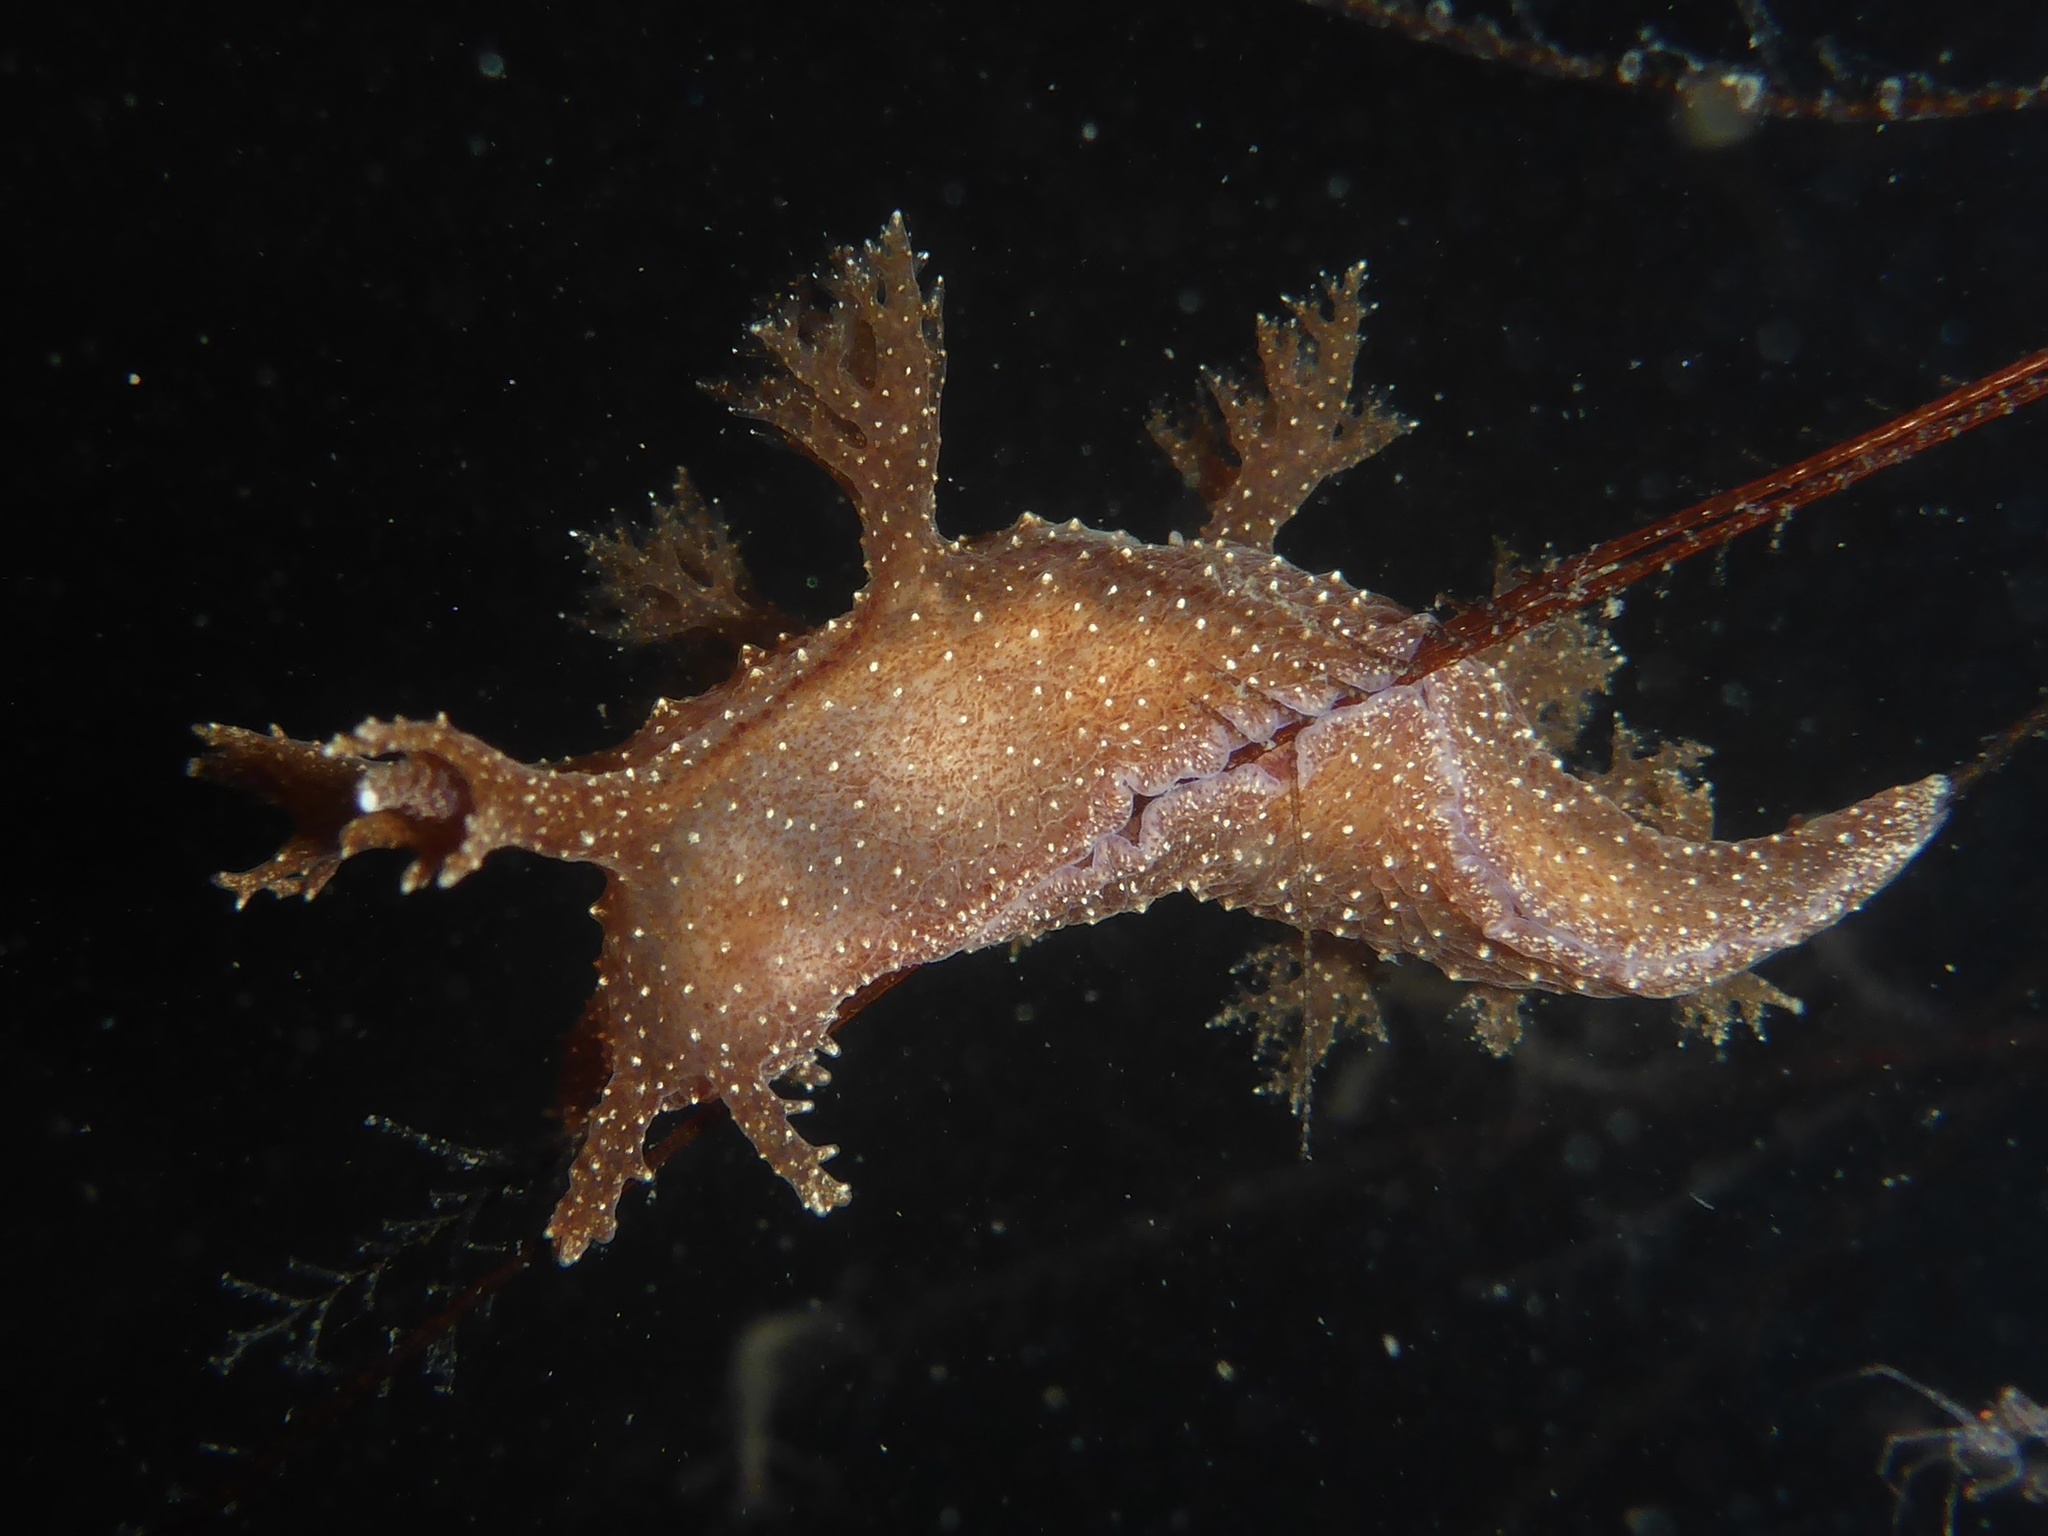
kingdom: Animalia
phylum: Mollusca
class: Gastropoda
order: Nudibranchia
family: Dendronotidae
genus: Dendronotus
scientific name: Dendronotus subramosus
